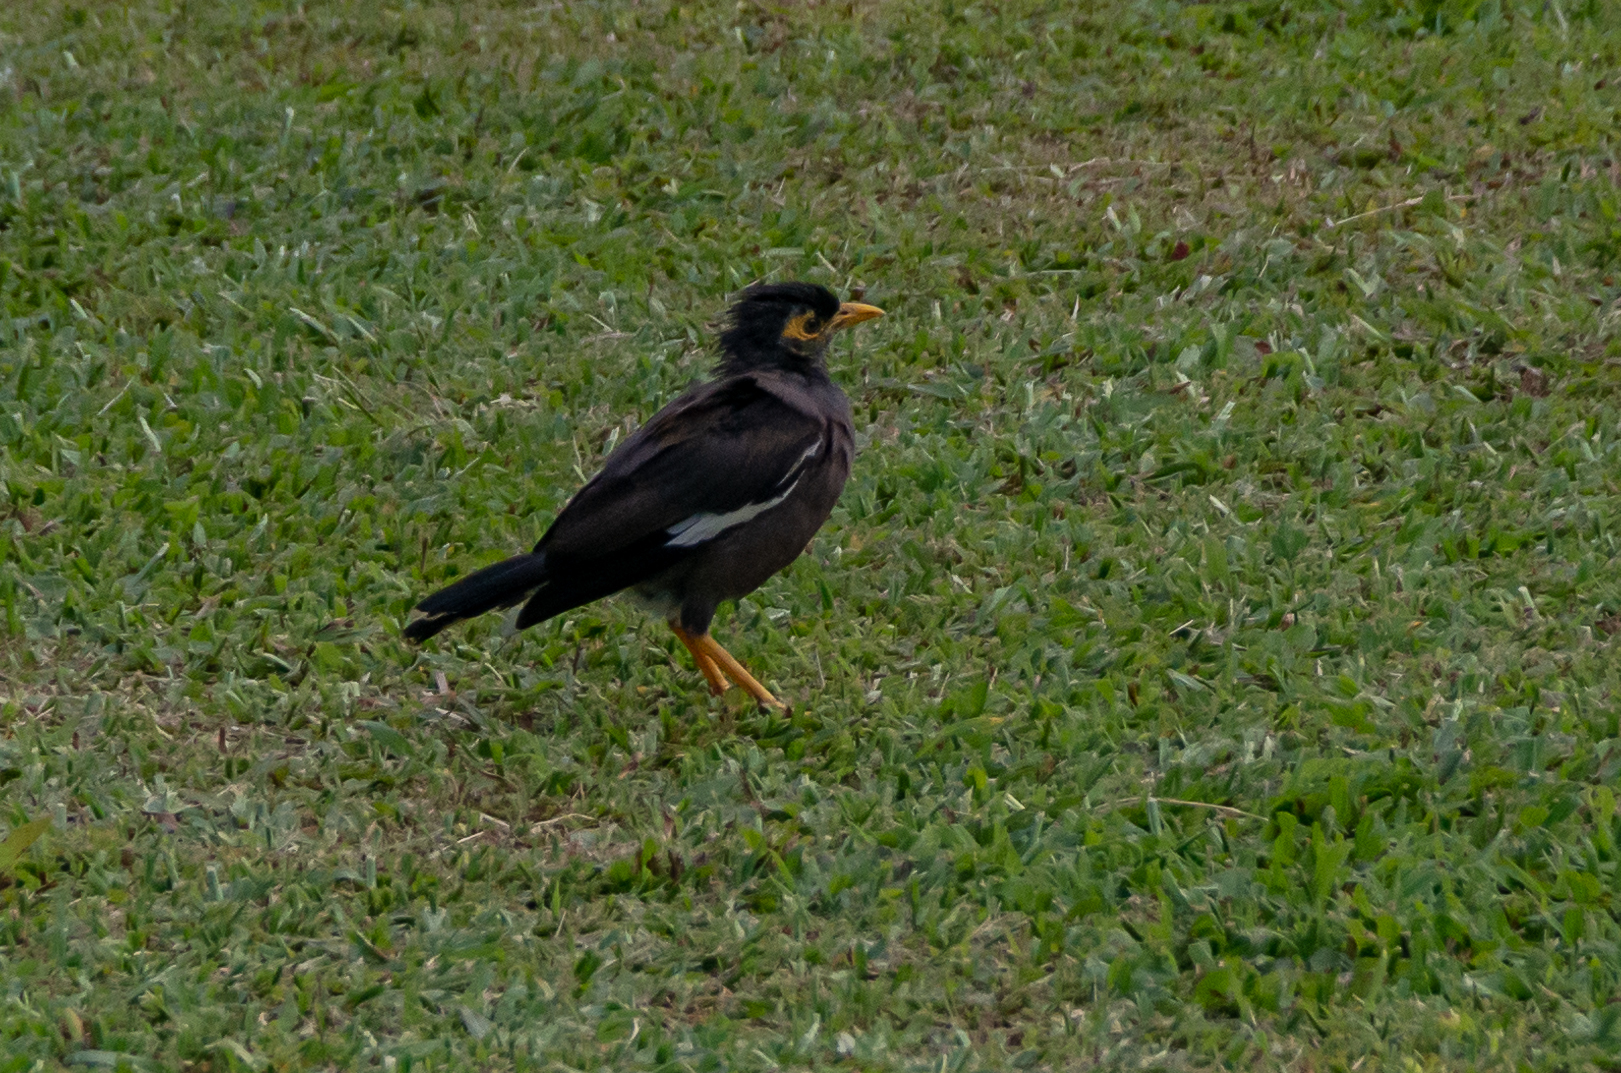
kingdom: Animalia
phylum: Chordata
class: Aves
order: Passeriformes
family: Sturnidae
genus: Acridotheres
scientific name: Acridotheres tristis
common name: Common myna
